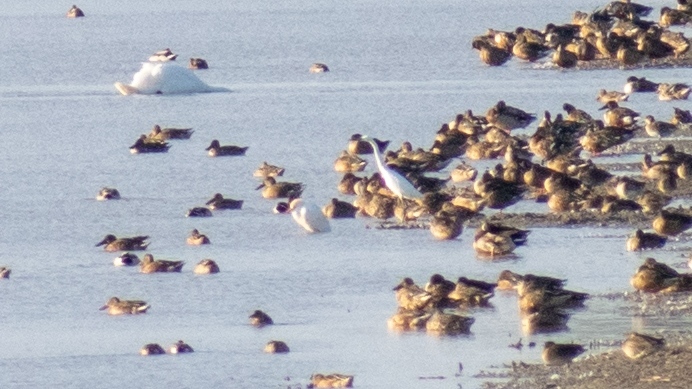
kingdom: Animalia
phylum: Chordata
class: Aves
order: Pelecaniformes
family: Ardeidae
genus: Egretta
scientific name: Egretta garzetta
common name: Little egret
